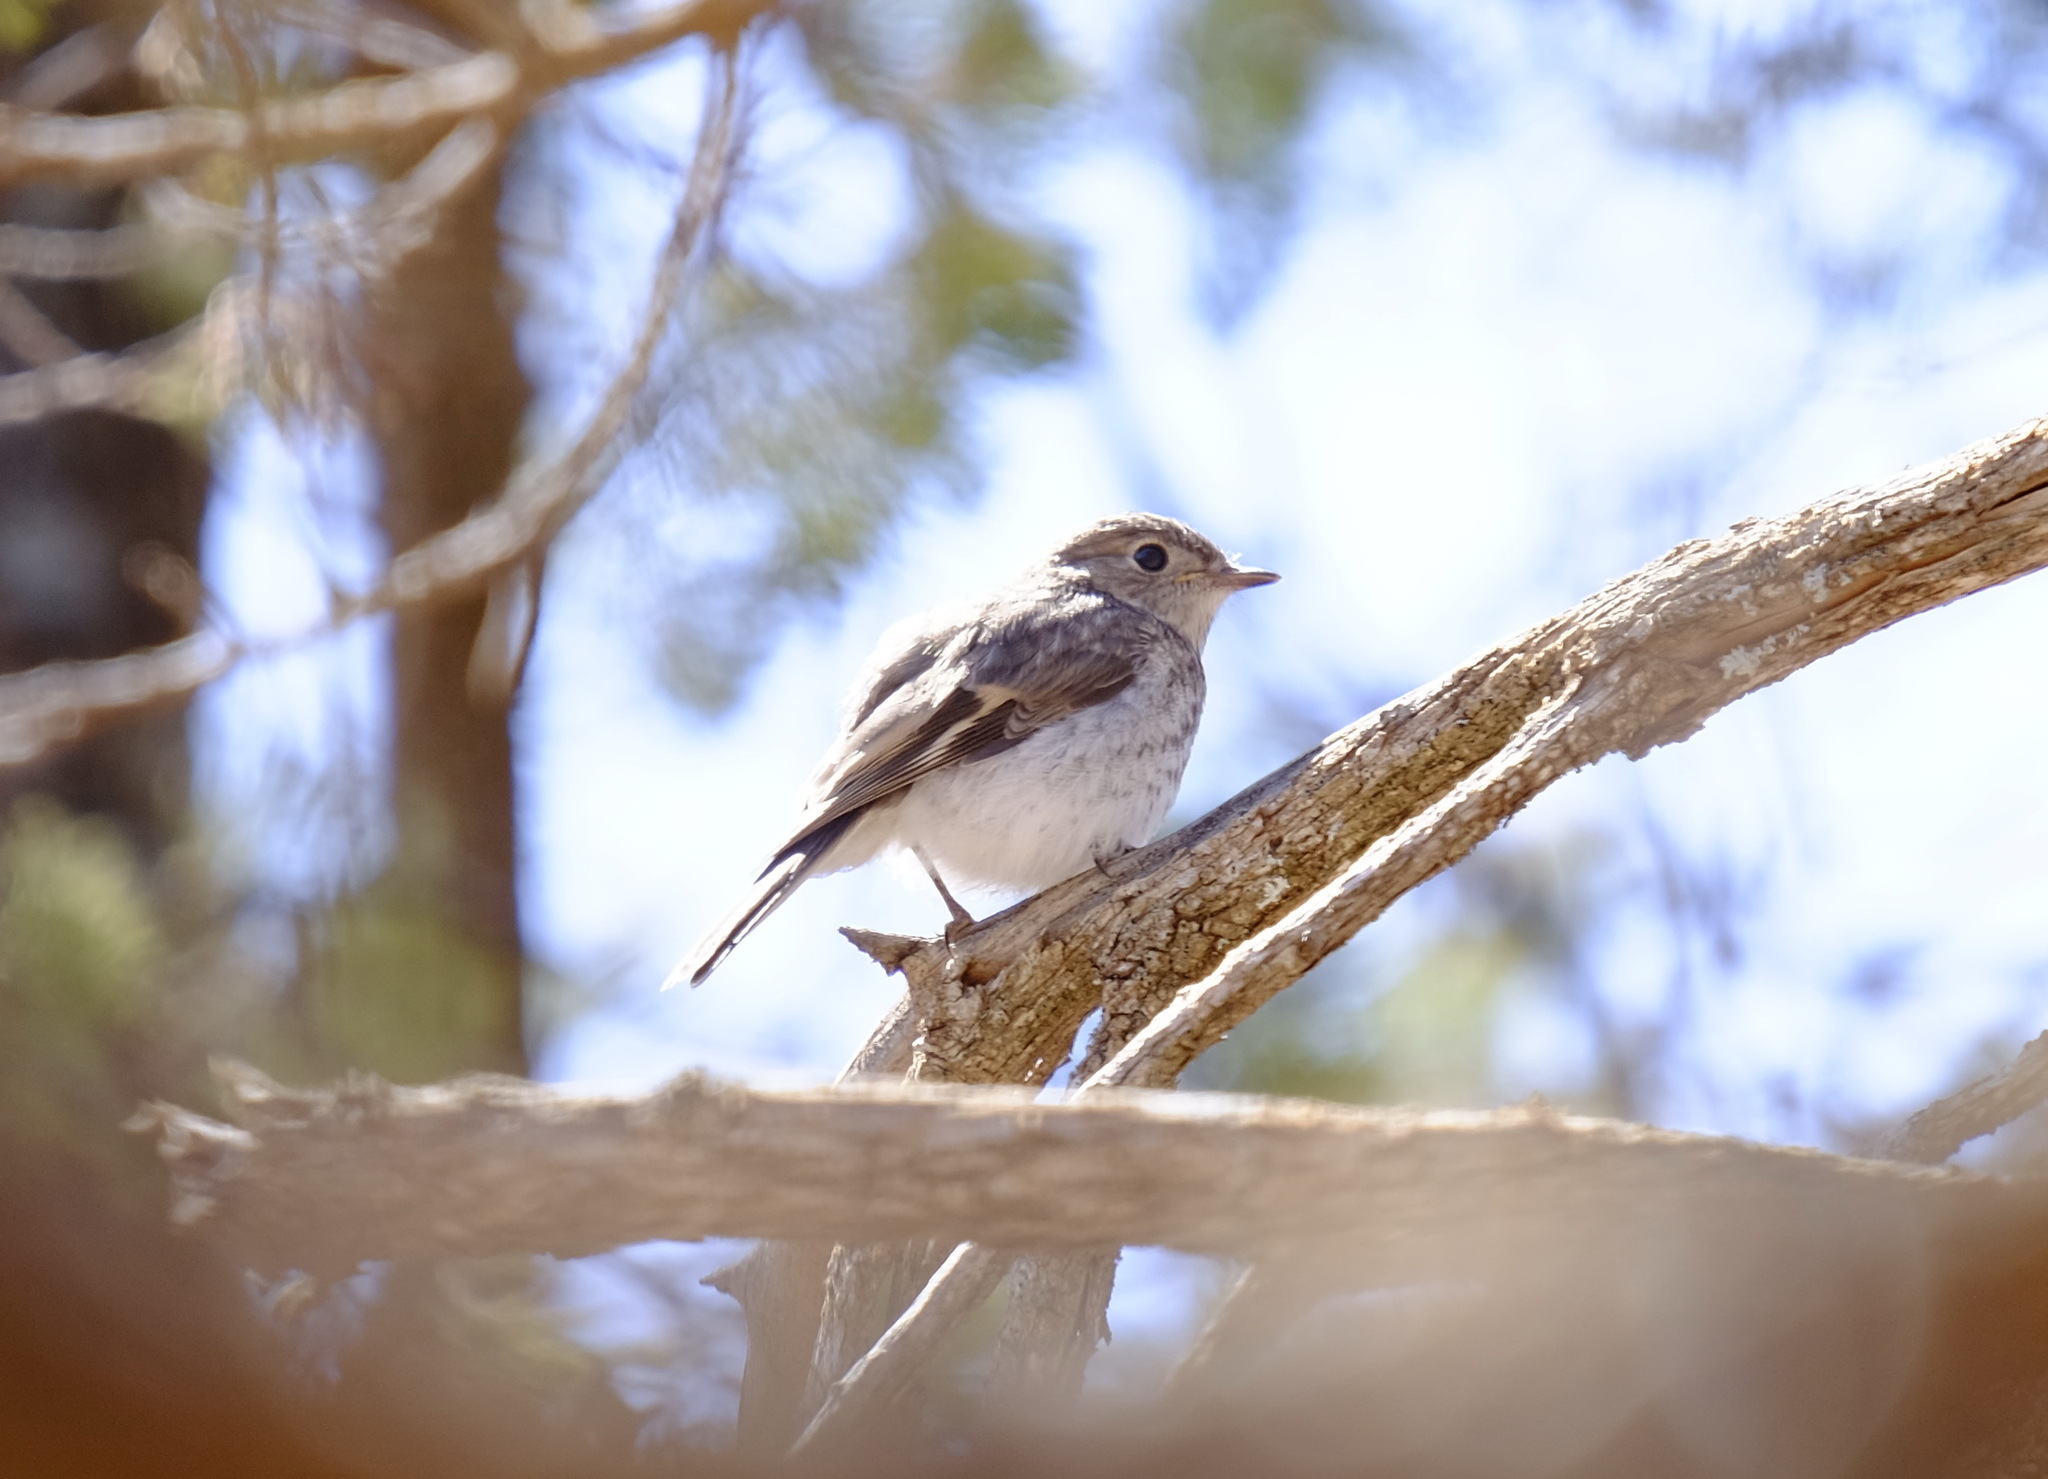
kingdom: Animalia
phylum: Chordata
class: Aves
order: Passeriformes
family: Petroicidae
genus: Petroica
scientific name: Petroica goodenovii
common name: Red-capped robin
